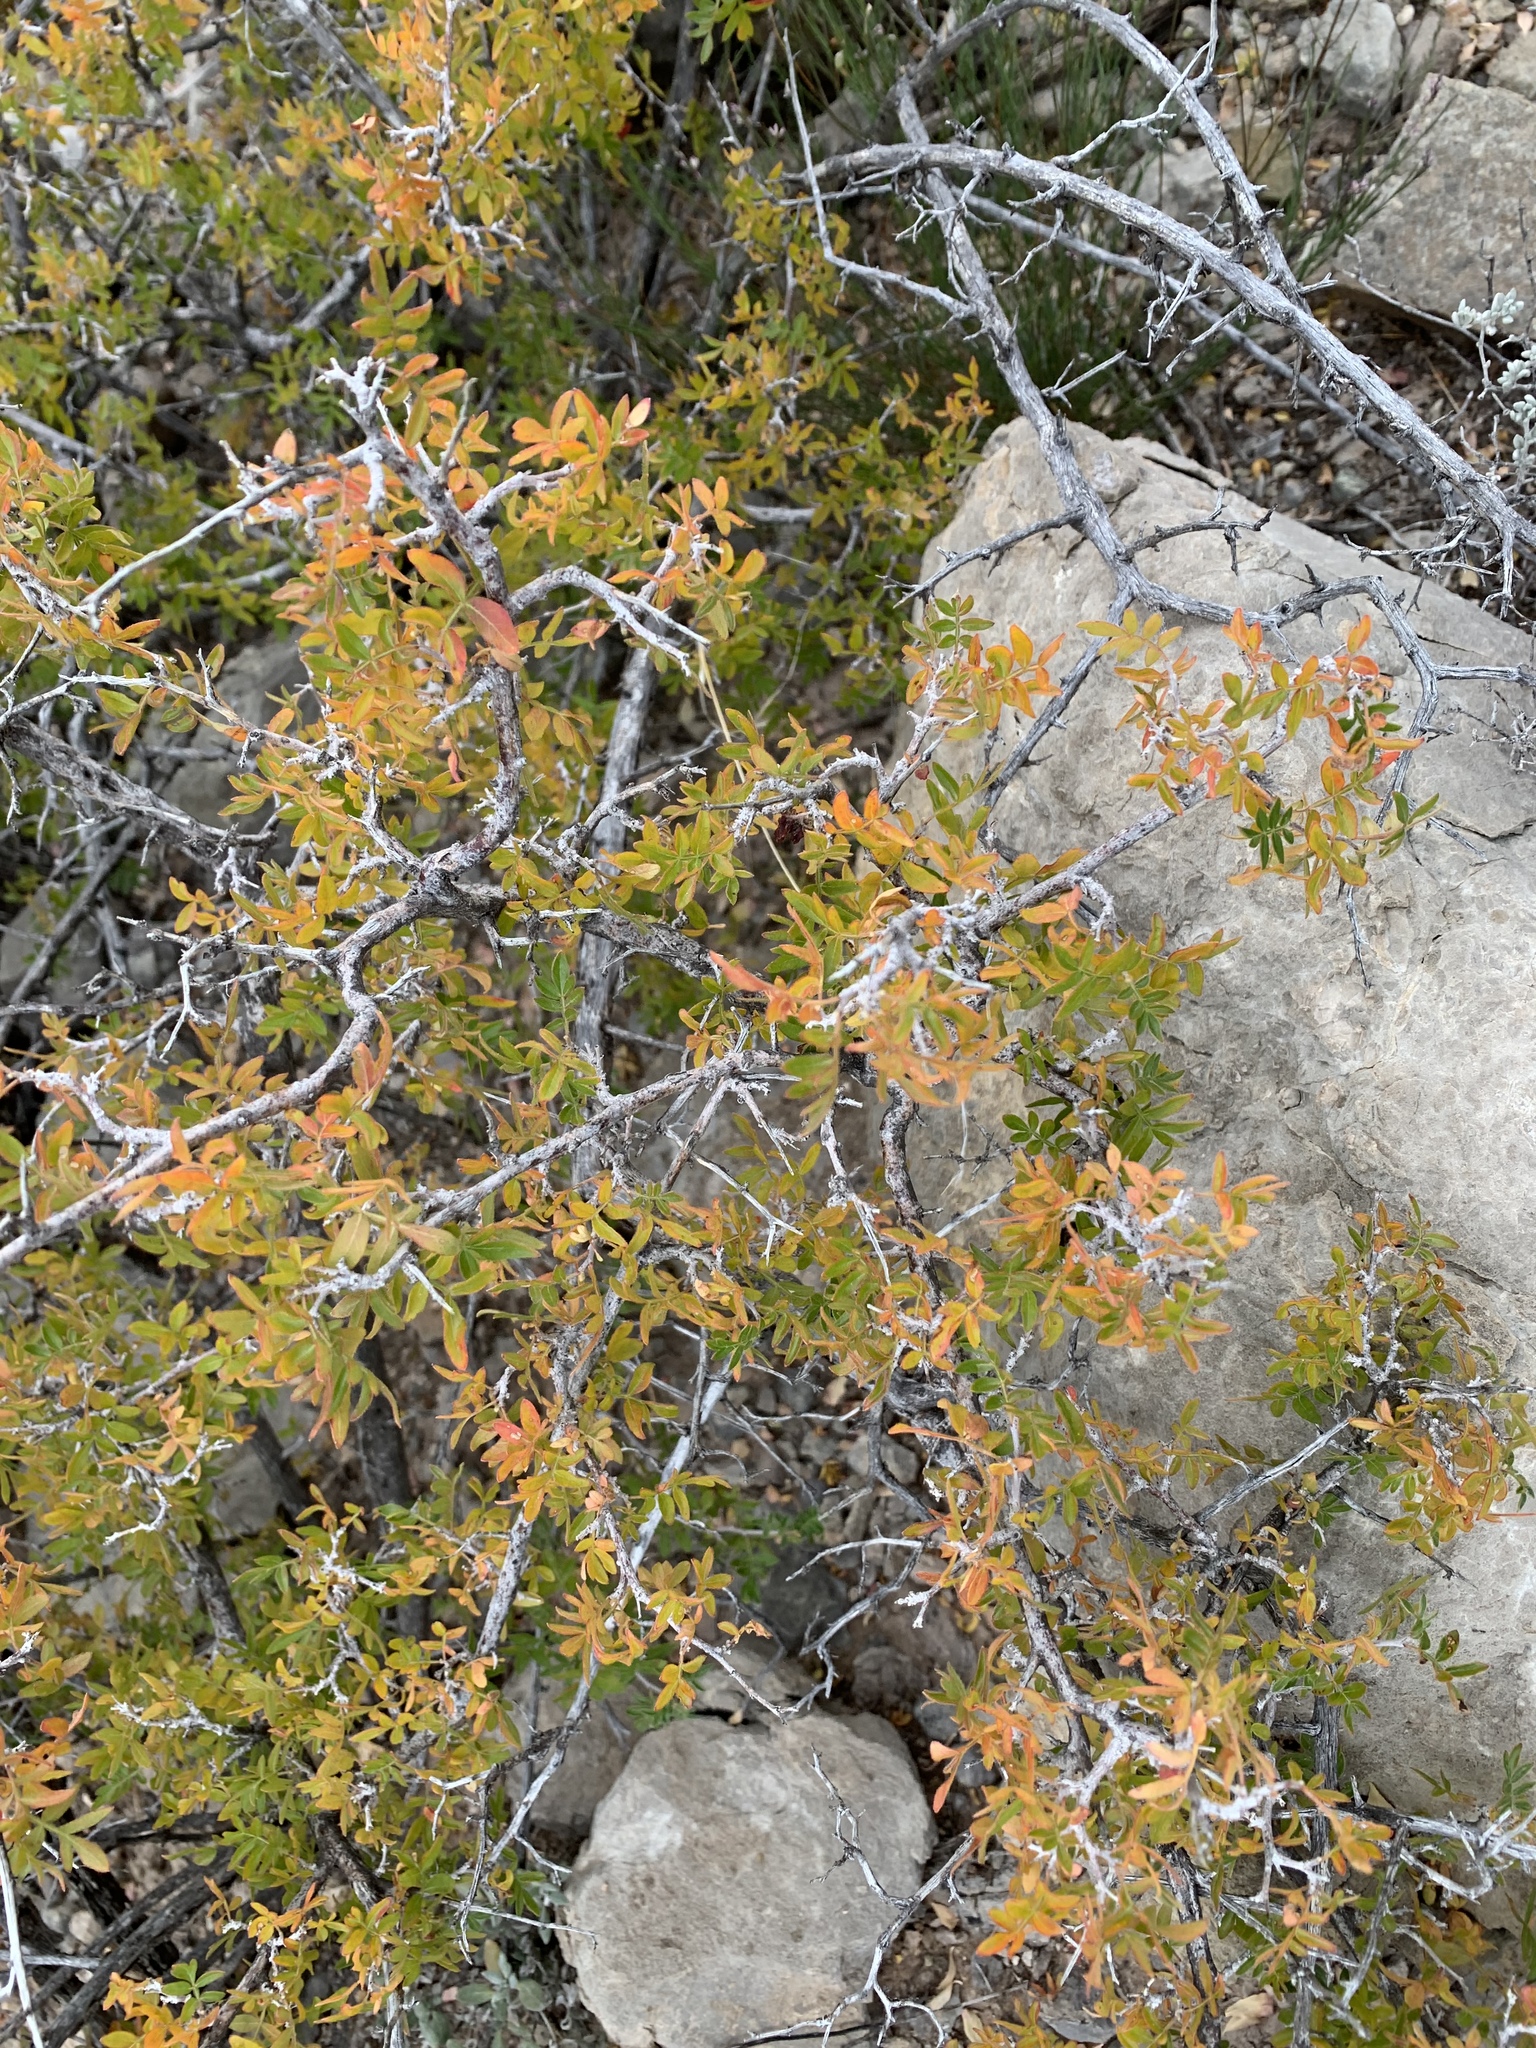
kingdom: Plantae
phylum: Tracheophyta
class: Magnoliopsida
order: Sapindales
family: Anacardiaceae
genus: Rhus
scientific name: Rhus microphylla
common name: Desert sumac
